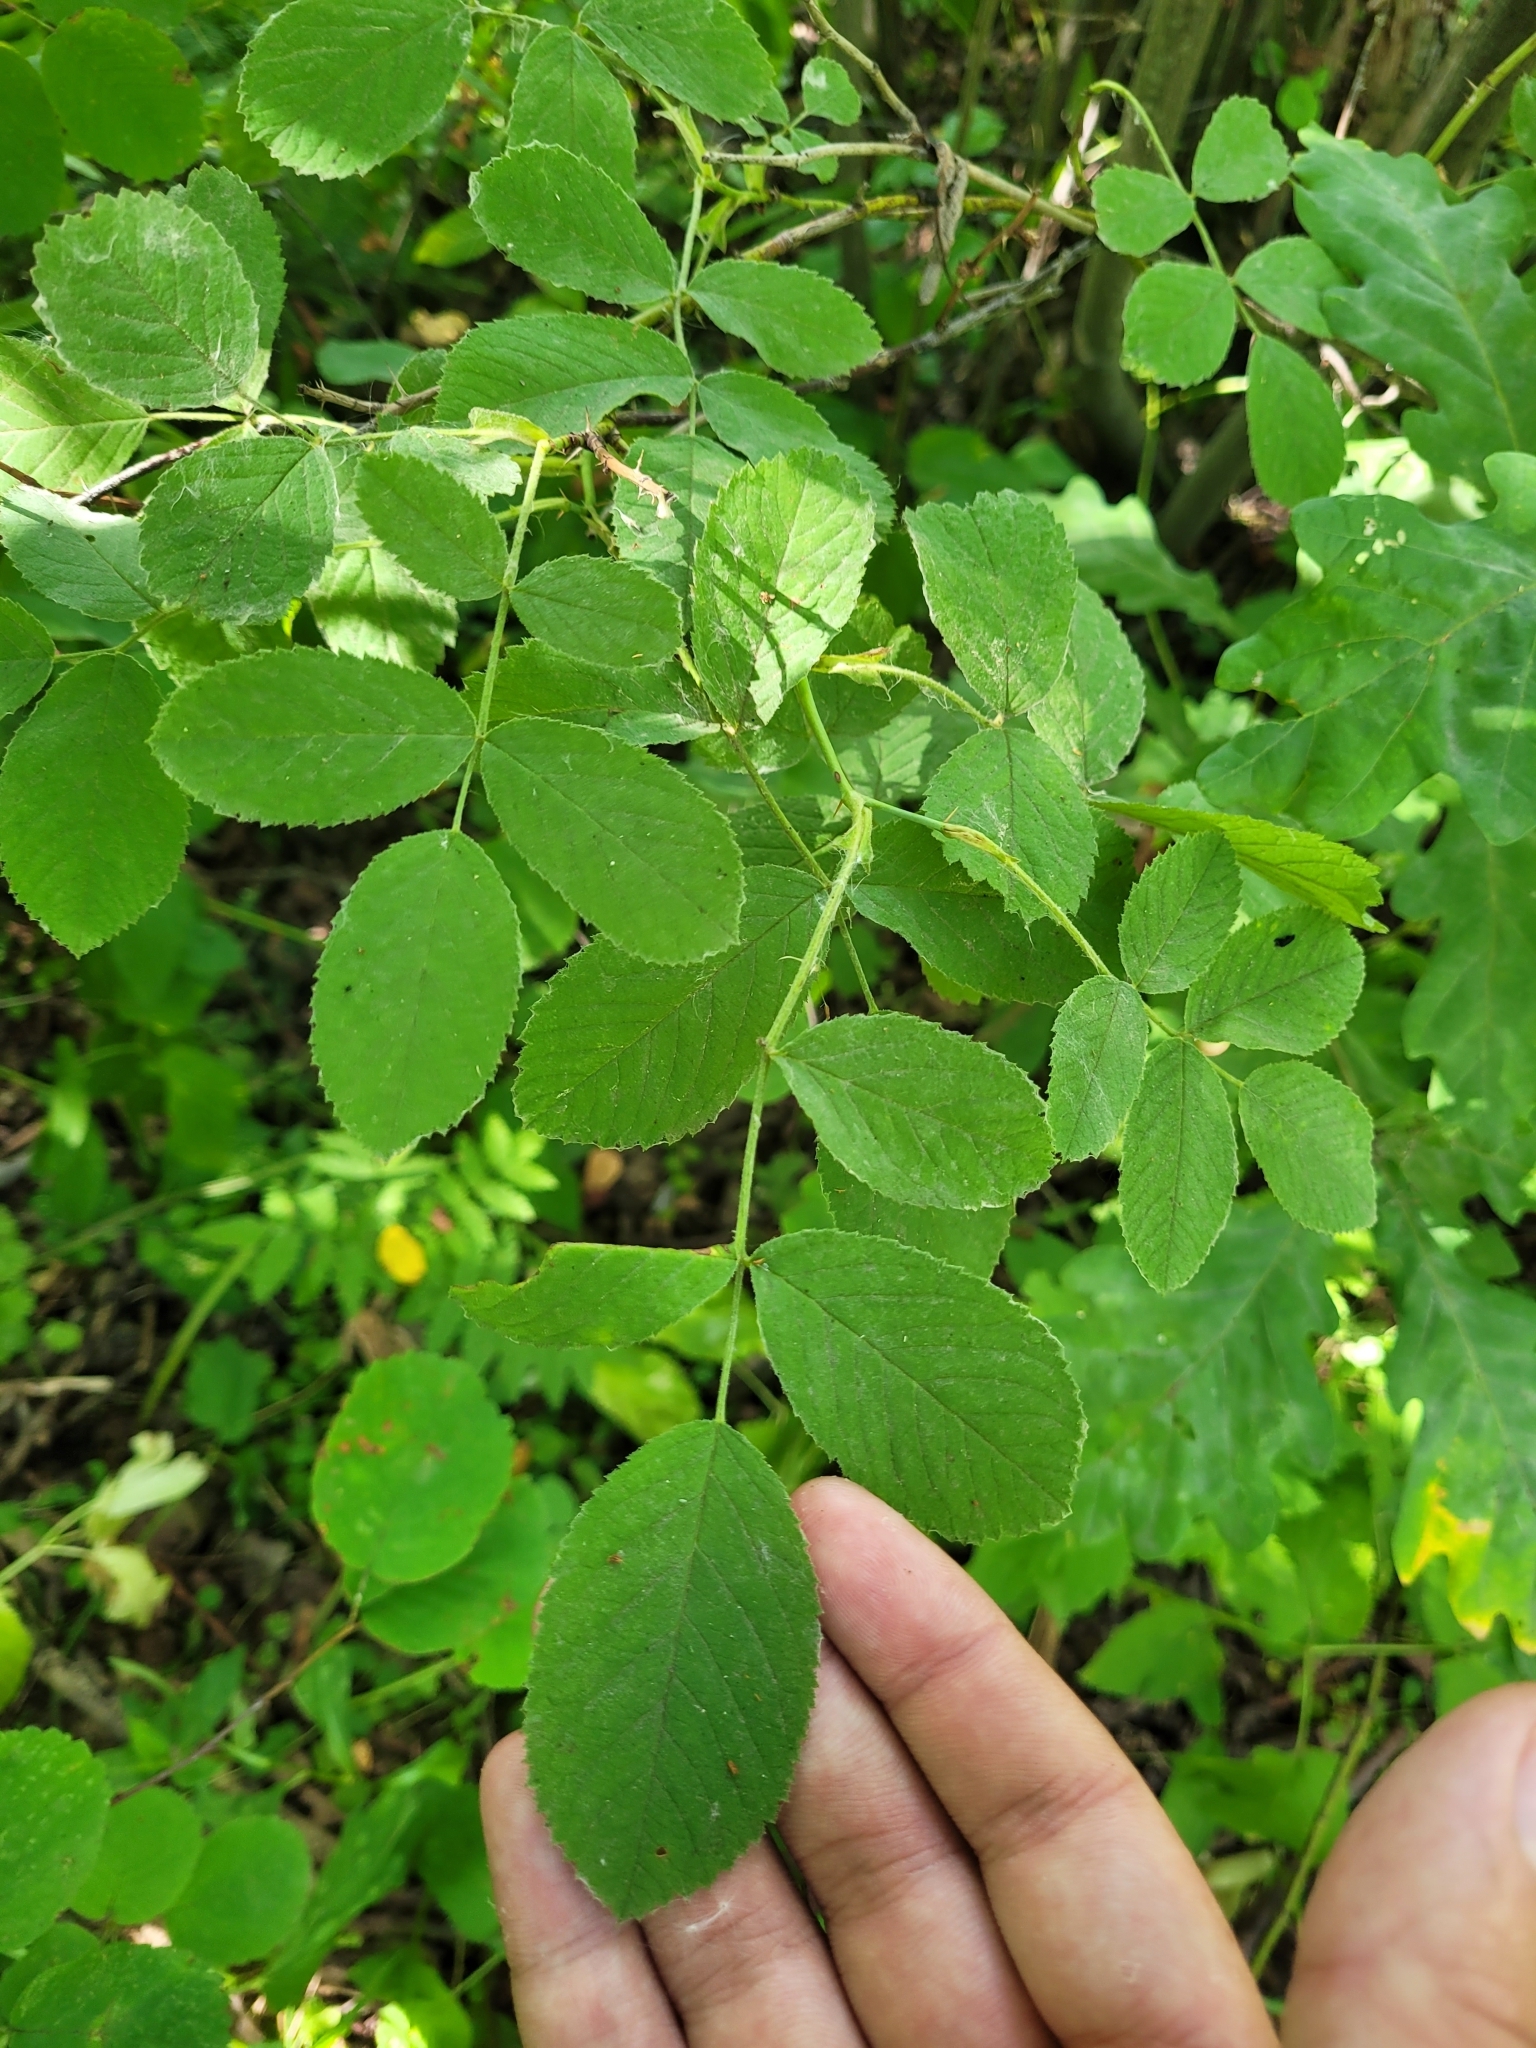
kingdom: Plantae
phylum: Tracheophyta
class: Magnoliopsida
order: Rosales
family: Rosaceae
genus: Rosa
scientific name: Rosa villosa
